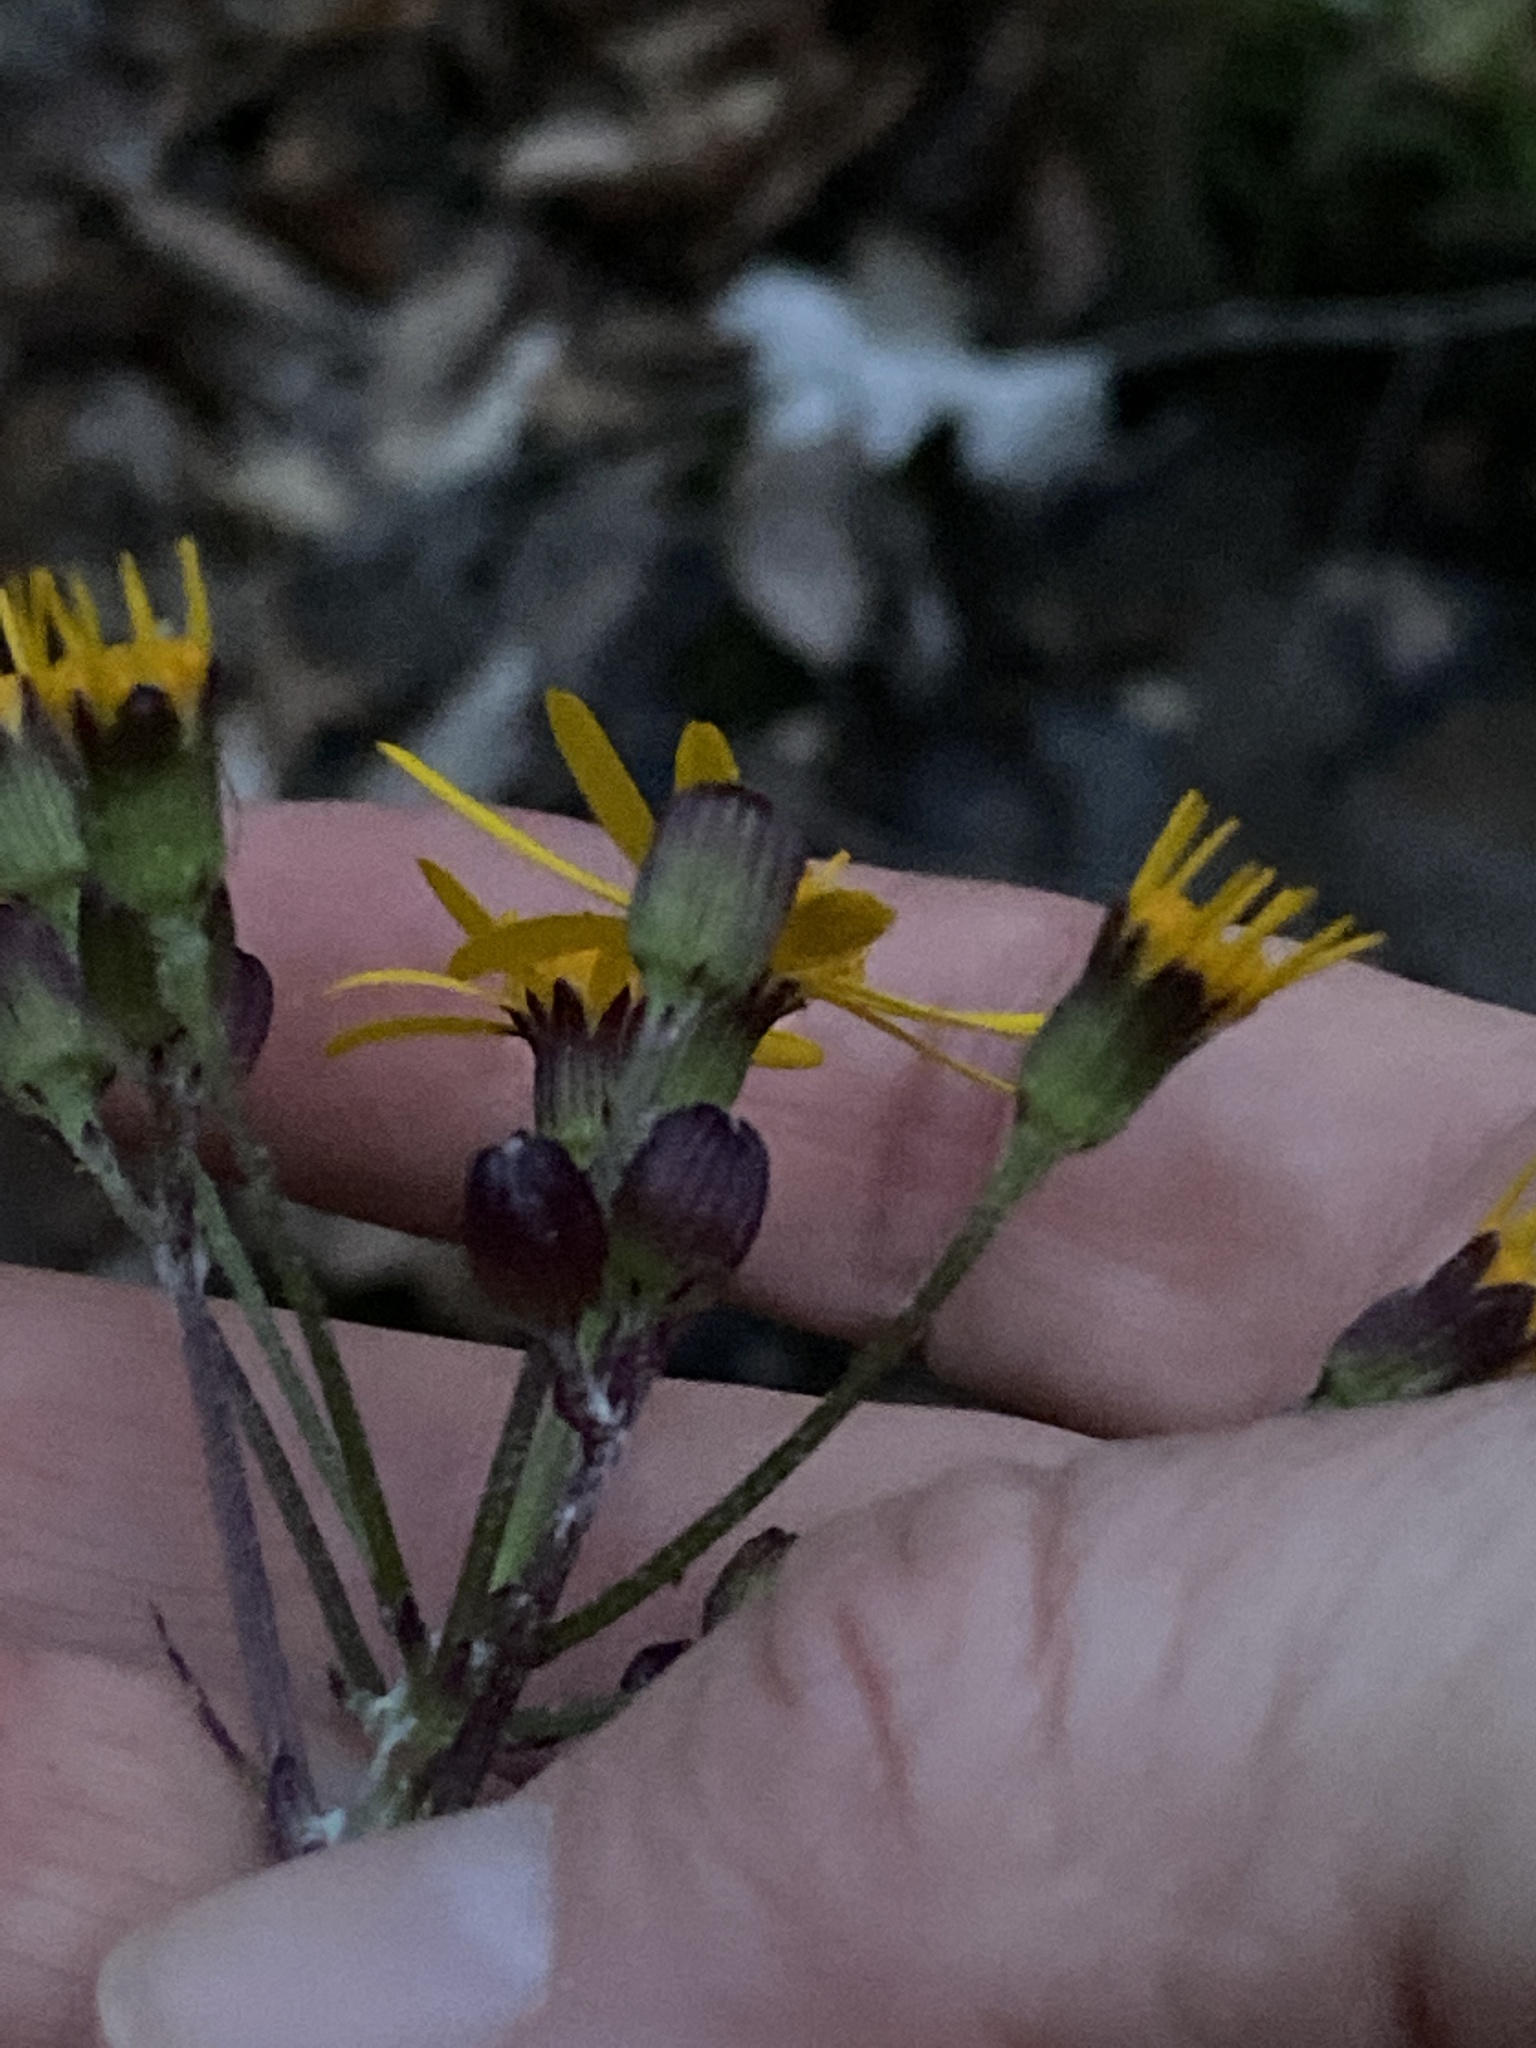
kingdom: Plantae
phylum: Tracheophyta
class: Magnoliopsida
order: Asterales
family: Asteraceae
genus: Packera
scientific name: Packera aurea
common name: Golden groundsel
